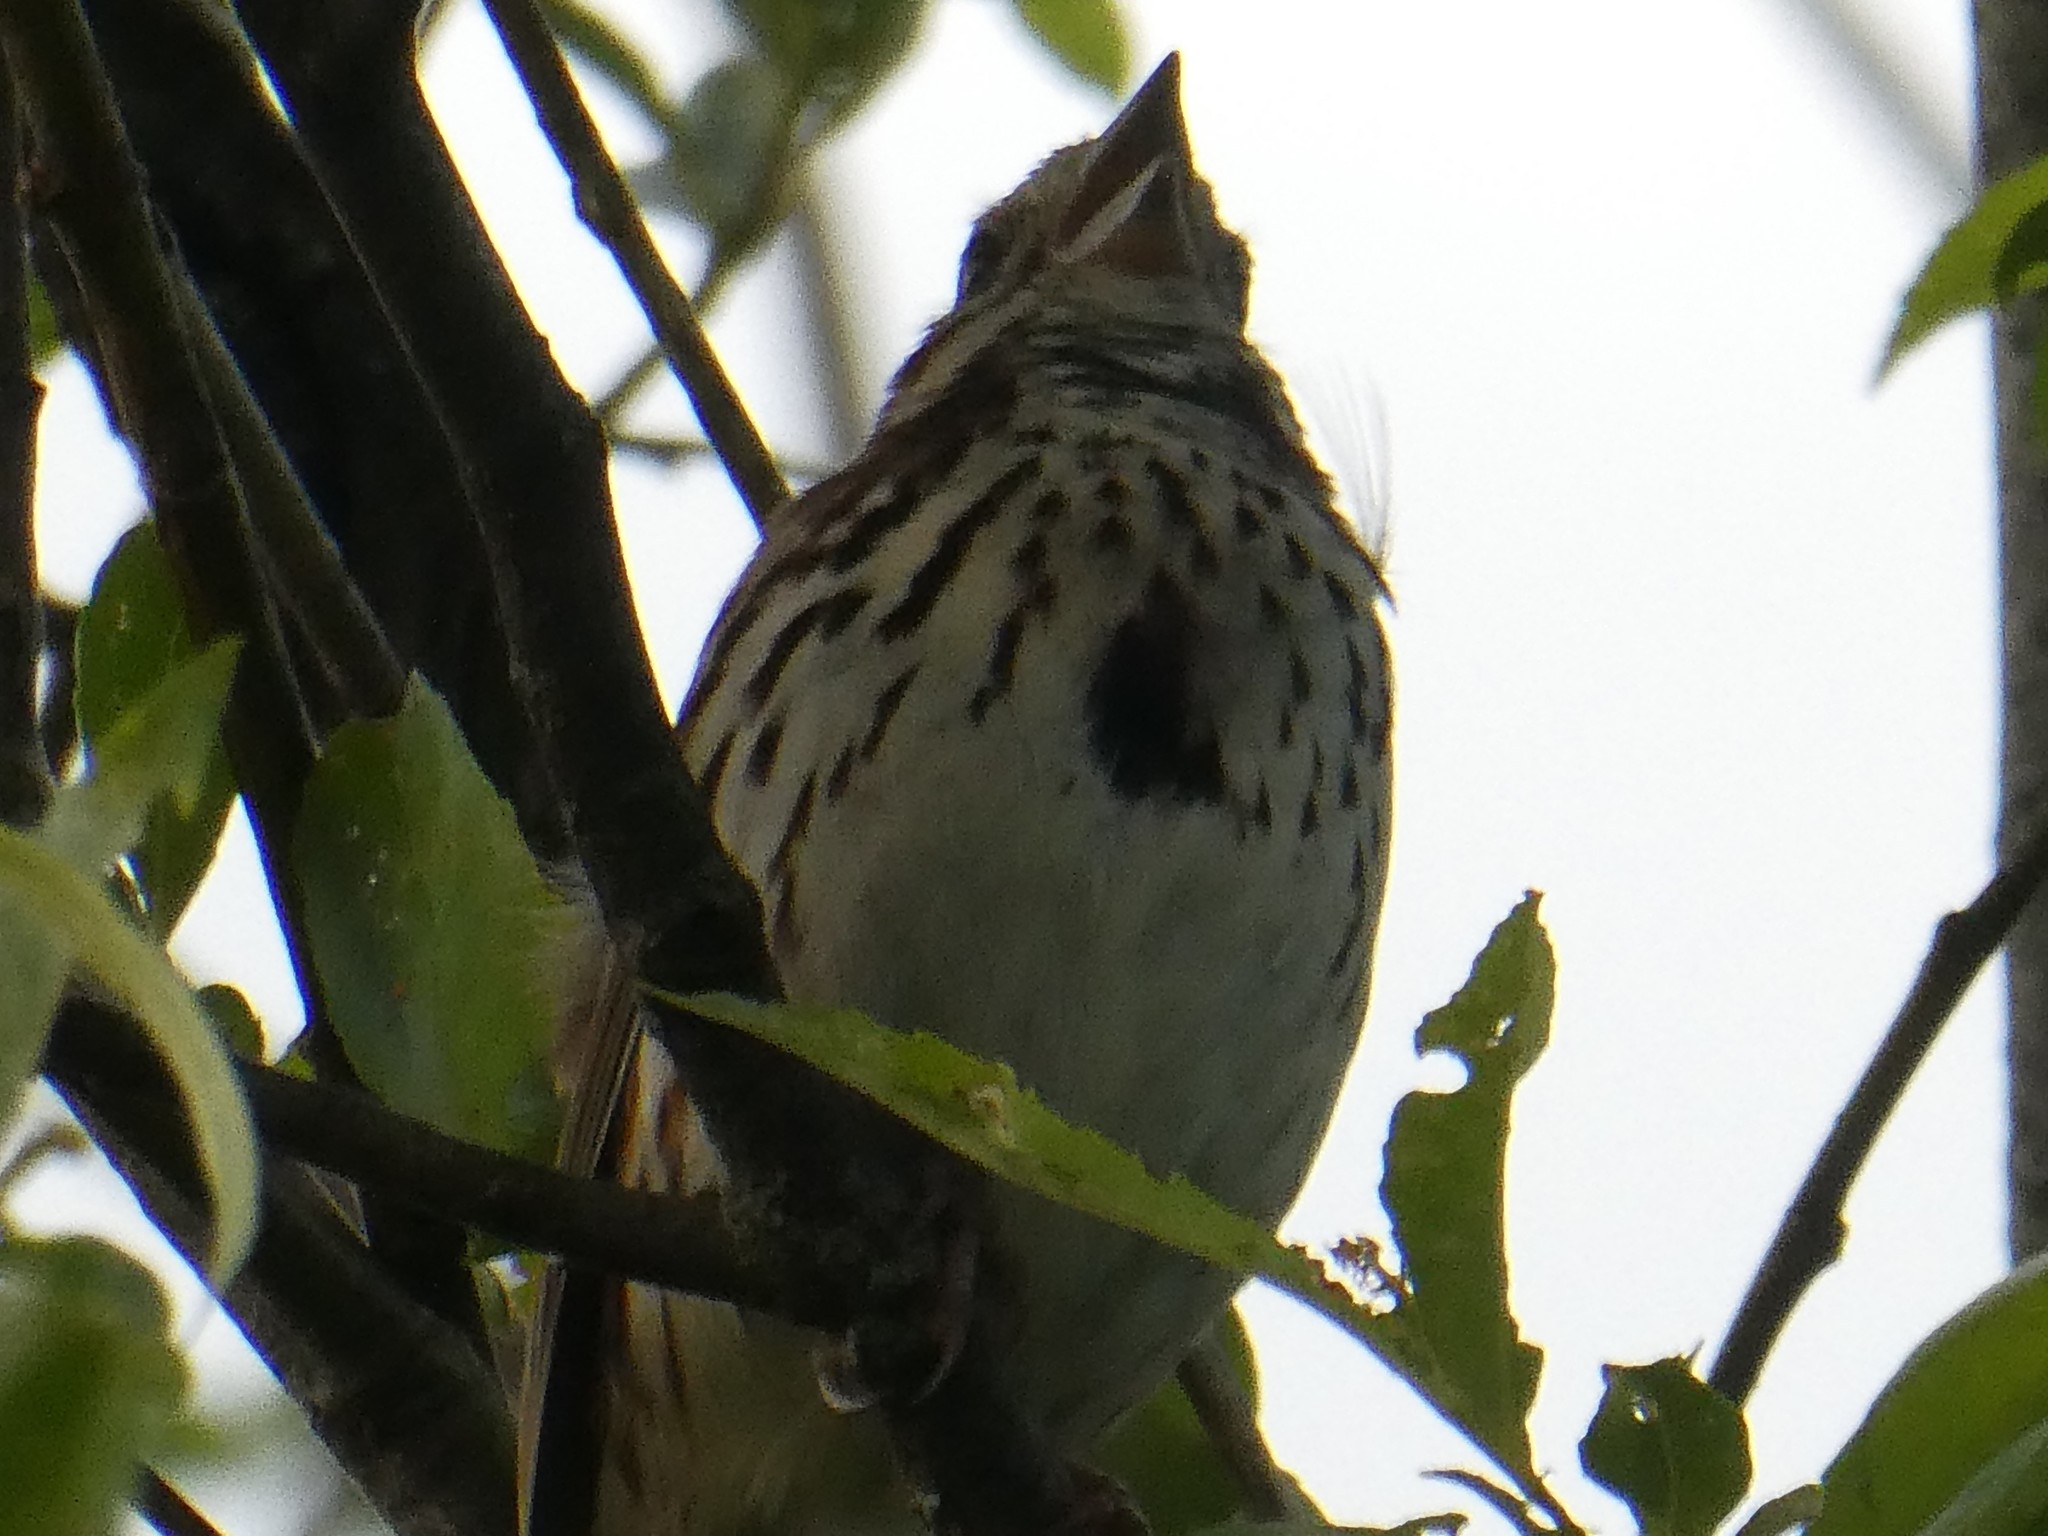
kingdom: Animalia
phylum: Chordata
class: Aves
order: Passeriformes
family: Passerellidae
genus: Melospiza
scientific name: Melospiza melodia
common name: Song sparrow
